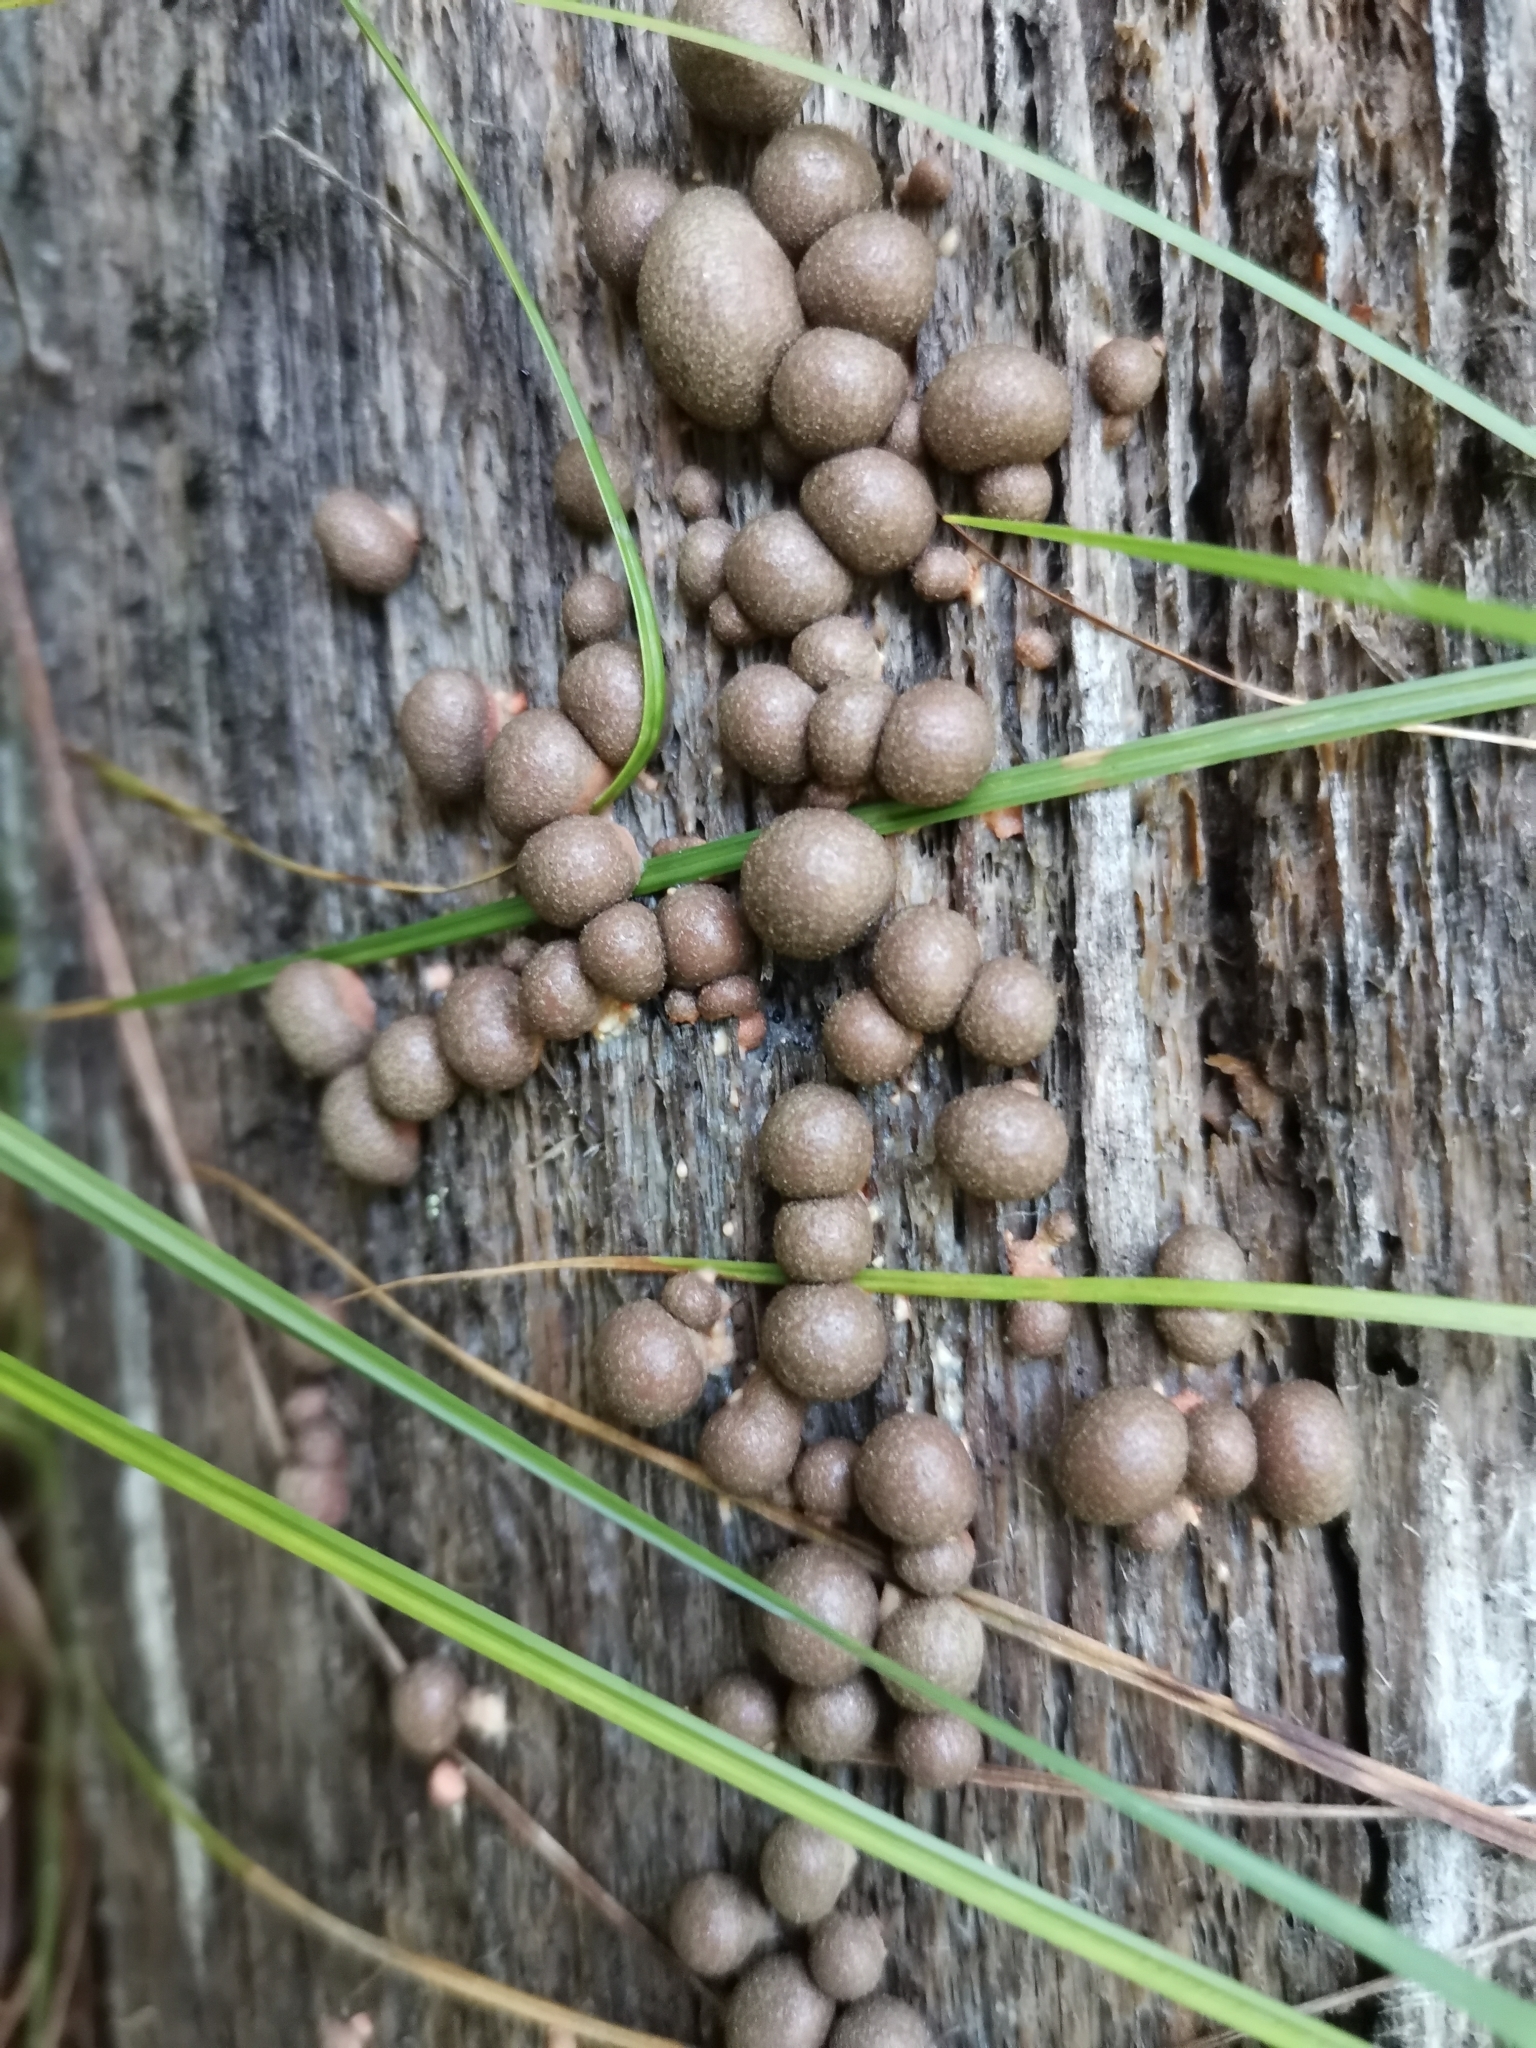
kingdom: Protozoa
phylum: Mycetozoa
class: Myxomycetes
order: Cribrariales
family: Tubiferaceae
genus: Lycogala
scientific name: Lycogala epidendrum
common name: Wolf's milk
